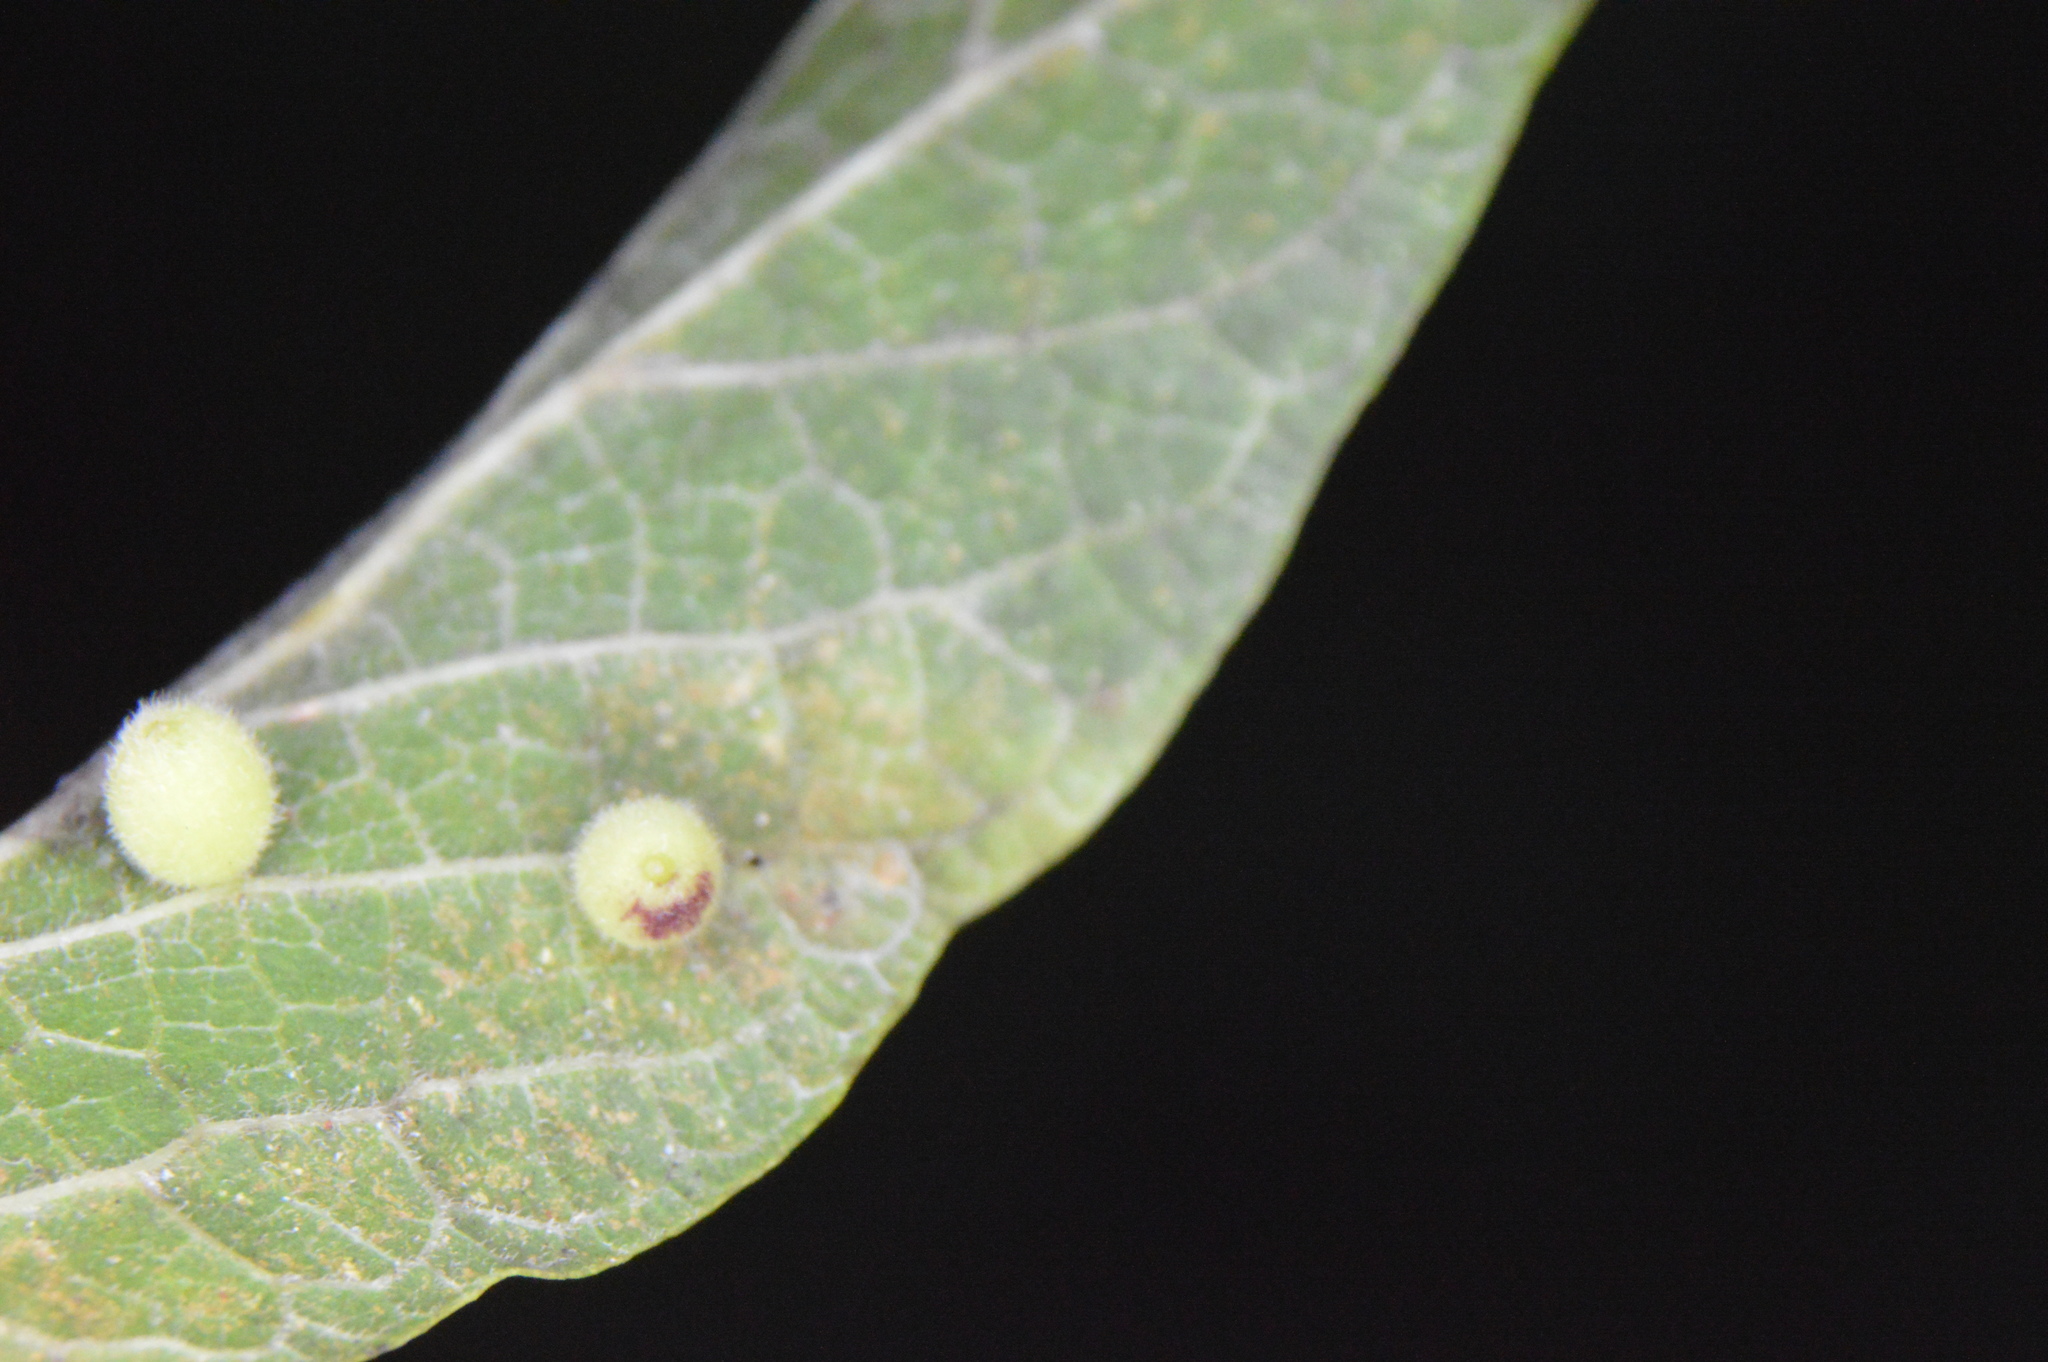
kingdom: Animalia
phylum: Arthropoda
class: Insecta
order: Diptera
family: Cecidomyiidae
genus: Celticecis
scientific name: Celticecis globosa
